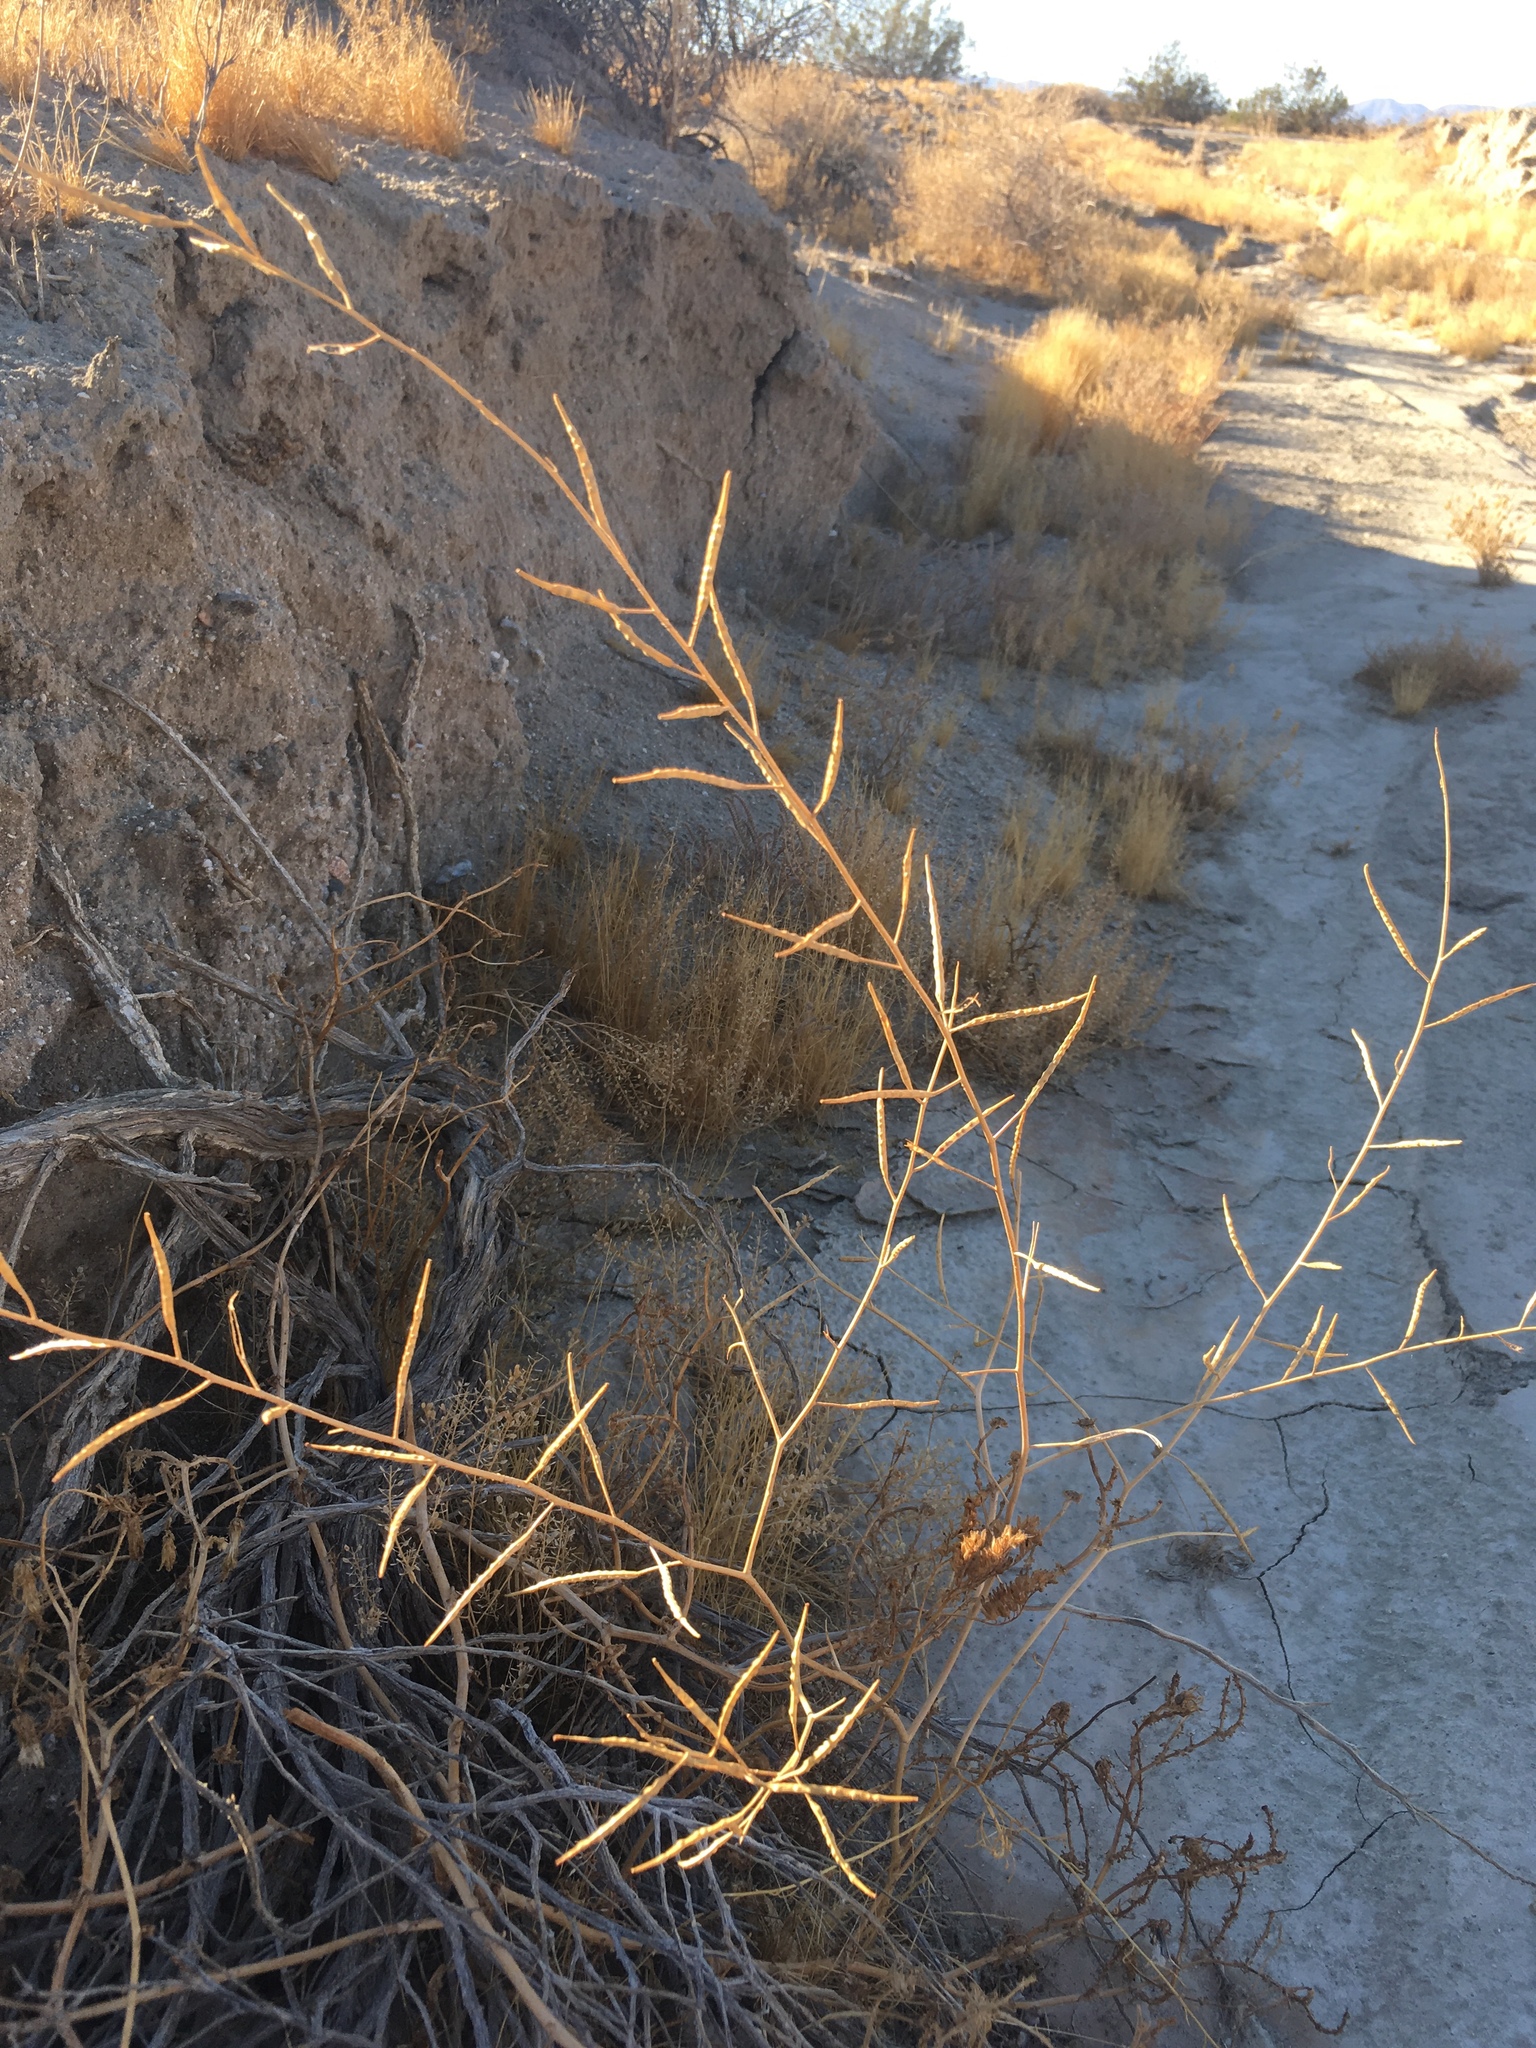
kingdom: Plantae
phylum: Tracheophyta
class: Magnoliopsida
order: Brassicales
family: Brassicaceae
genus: Brassica
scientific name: Brassica tournefortii
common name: Pale cabbage
